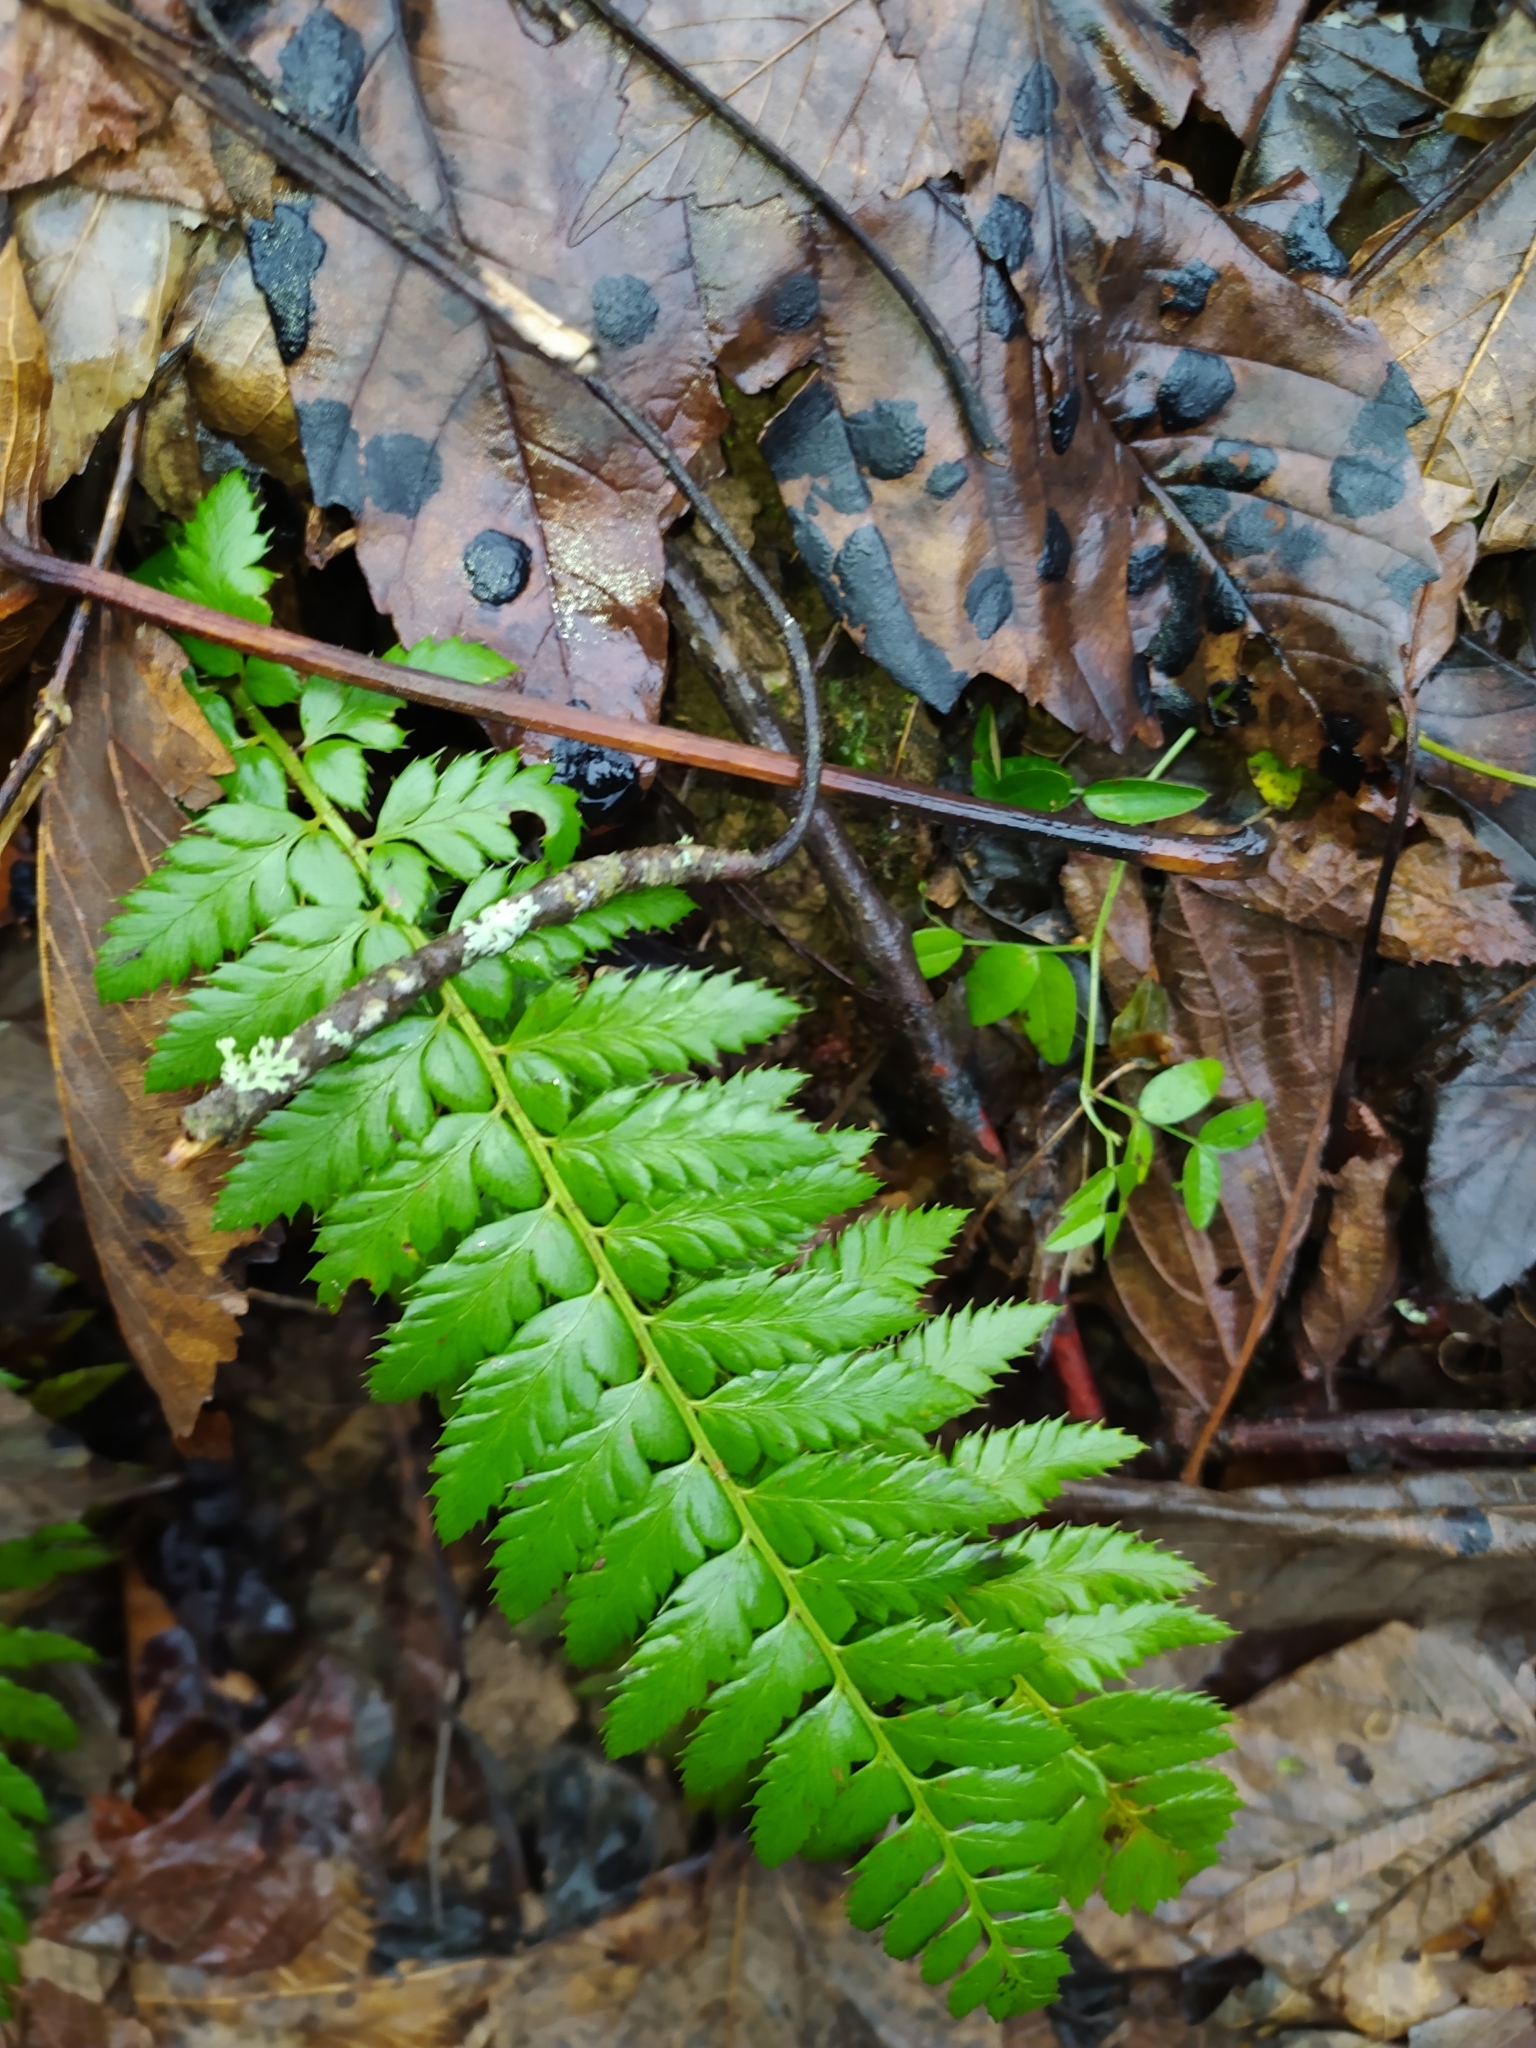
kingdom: Plantae
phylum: Tracheophyta
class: Polypodiopsida
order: Polypodiales
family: Dryopteridaceae
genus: Polystichum
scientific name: Polystichum aculeatum
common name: Hard shield-fern
